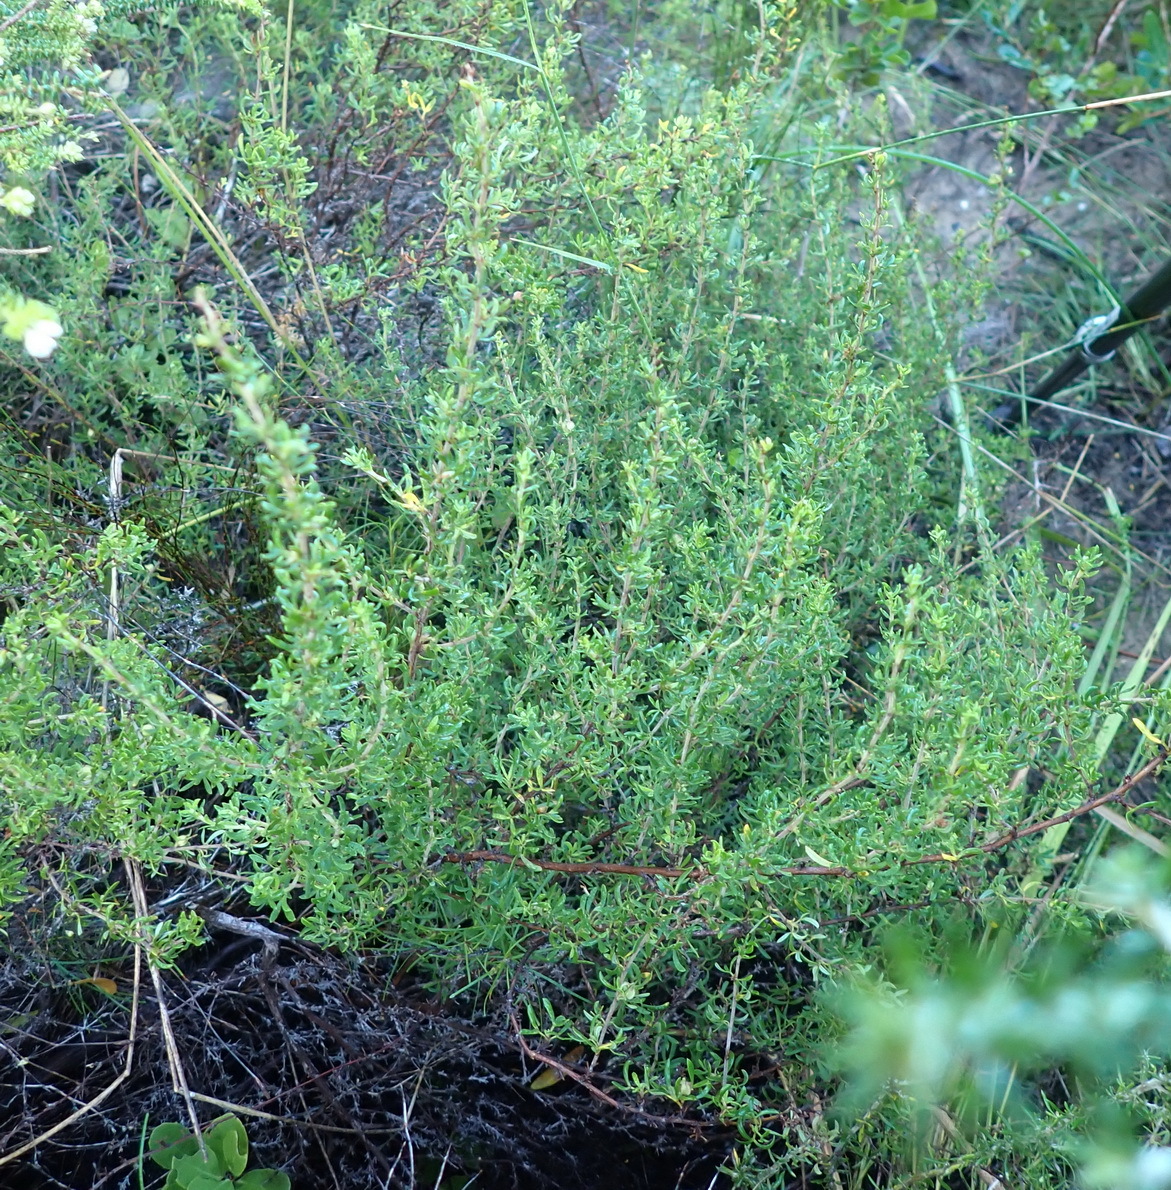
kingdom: Plantae
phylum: Tracheophyta
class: Magnoliopsida
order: Rosales
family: Rosaceae
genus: Cliffortia
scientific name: Cliffortia falcata
